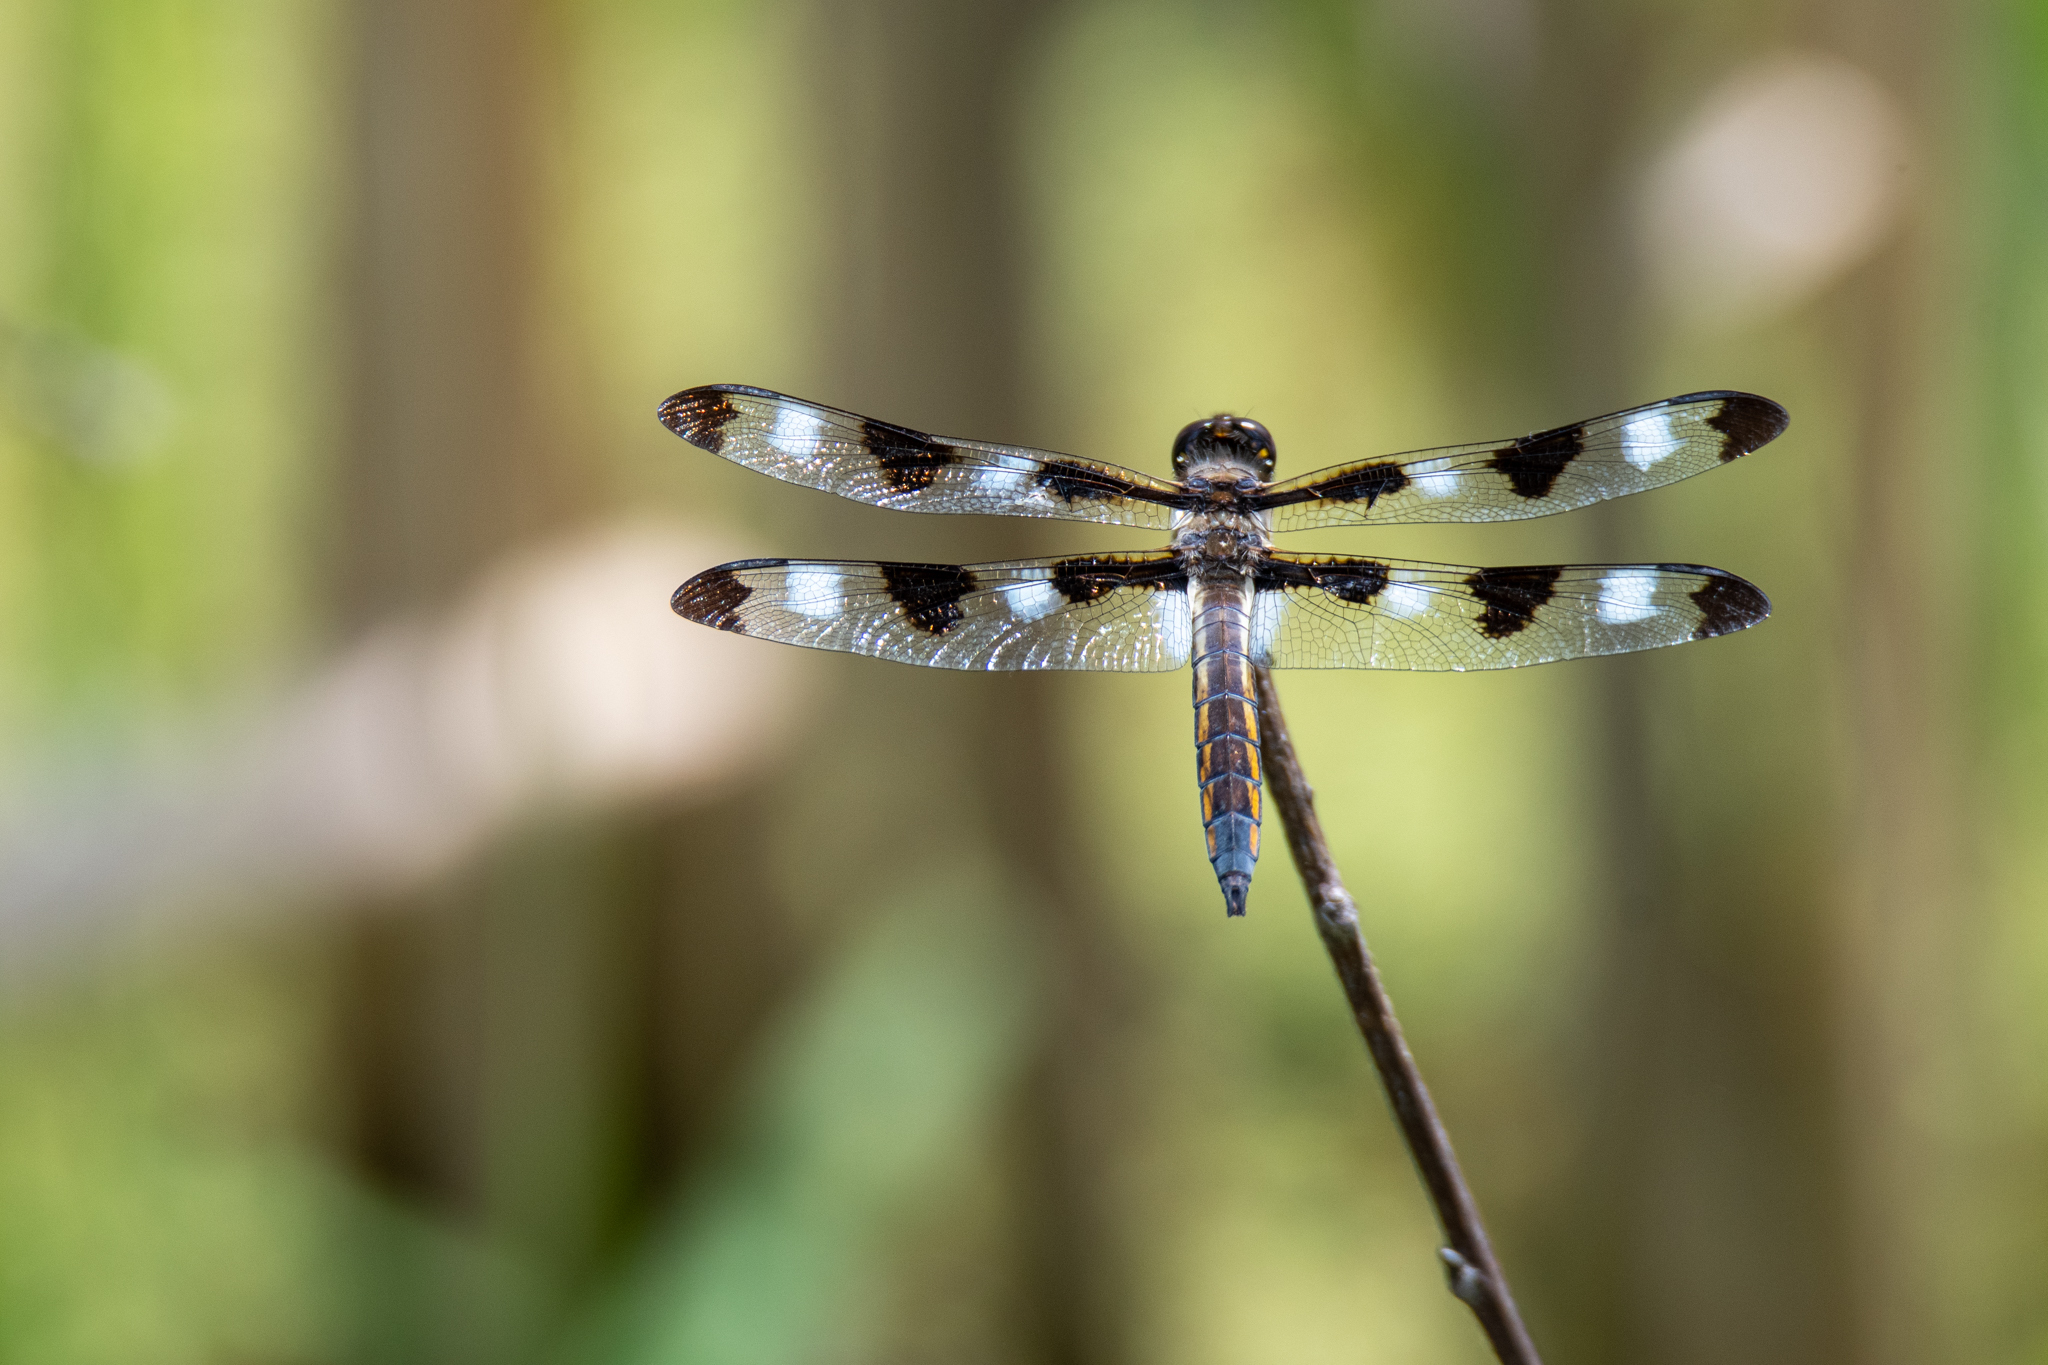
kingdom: Animalia
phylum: Arthropoda
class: Insecta
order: Odonata
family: Libellulidae
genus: Libellula
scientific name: Libellula pulchella
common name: Twelve-spotted skimmer
